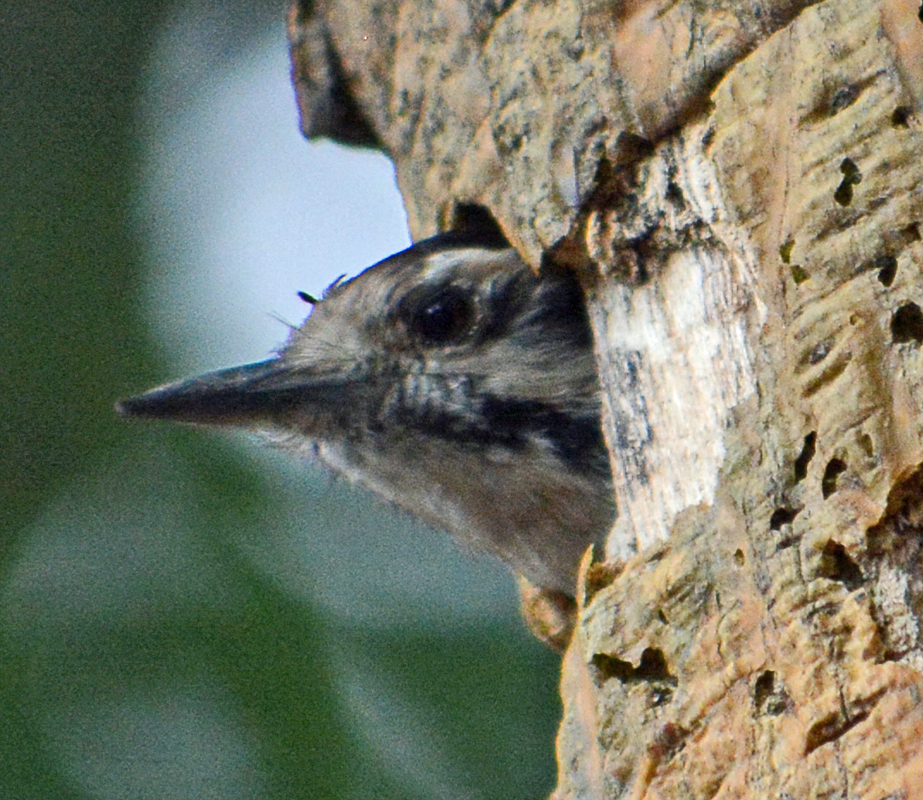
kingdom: Animalia
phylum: Chordata
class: Aves
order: Piciformes
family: Picidae
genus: Dryobates
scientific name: Dryobates scalaris
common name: Ladder-backed woodpecker
